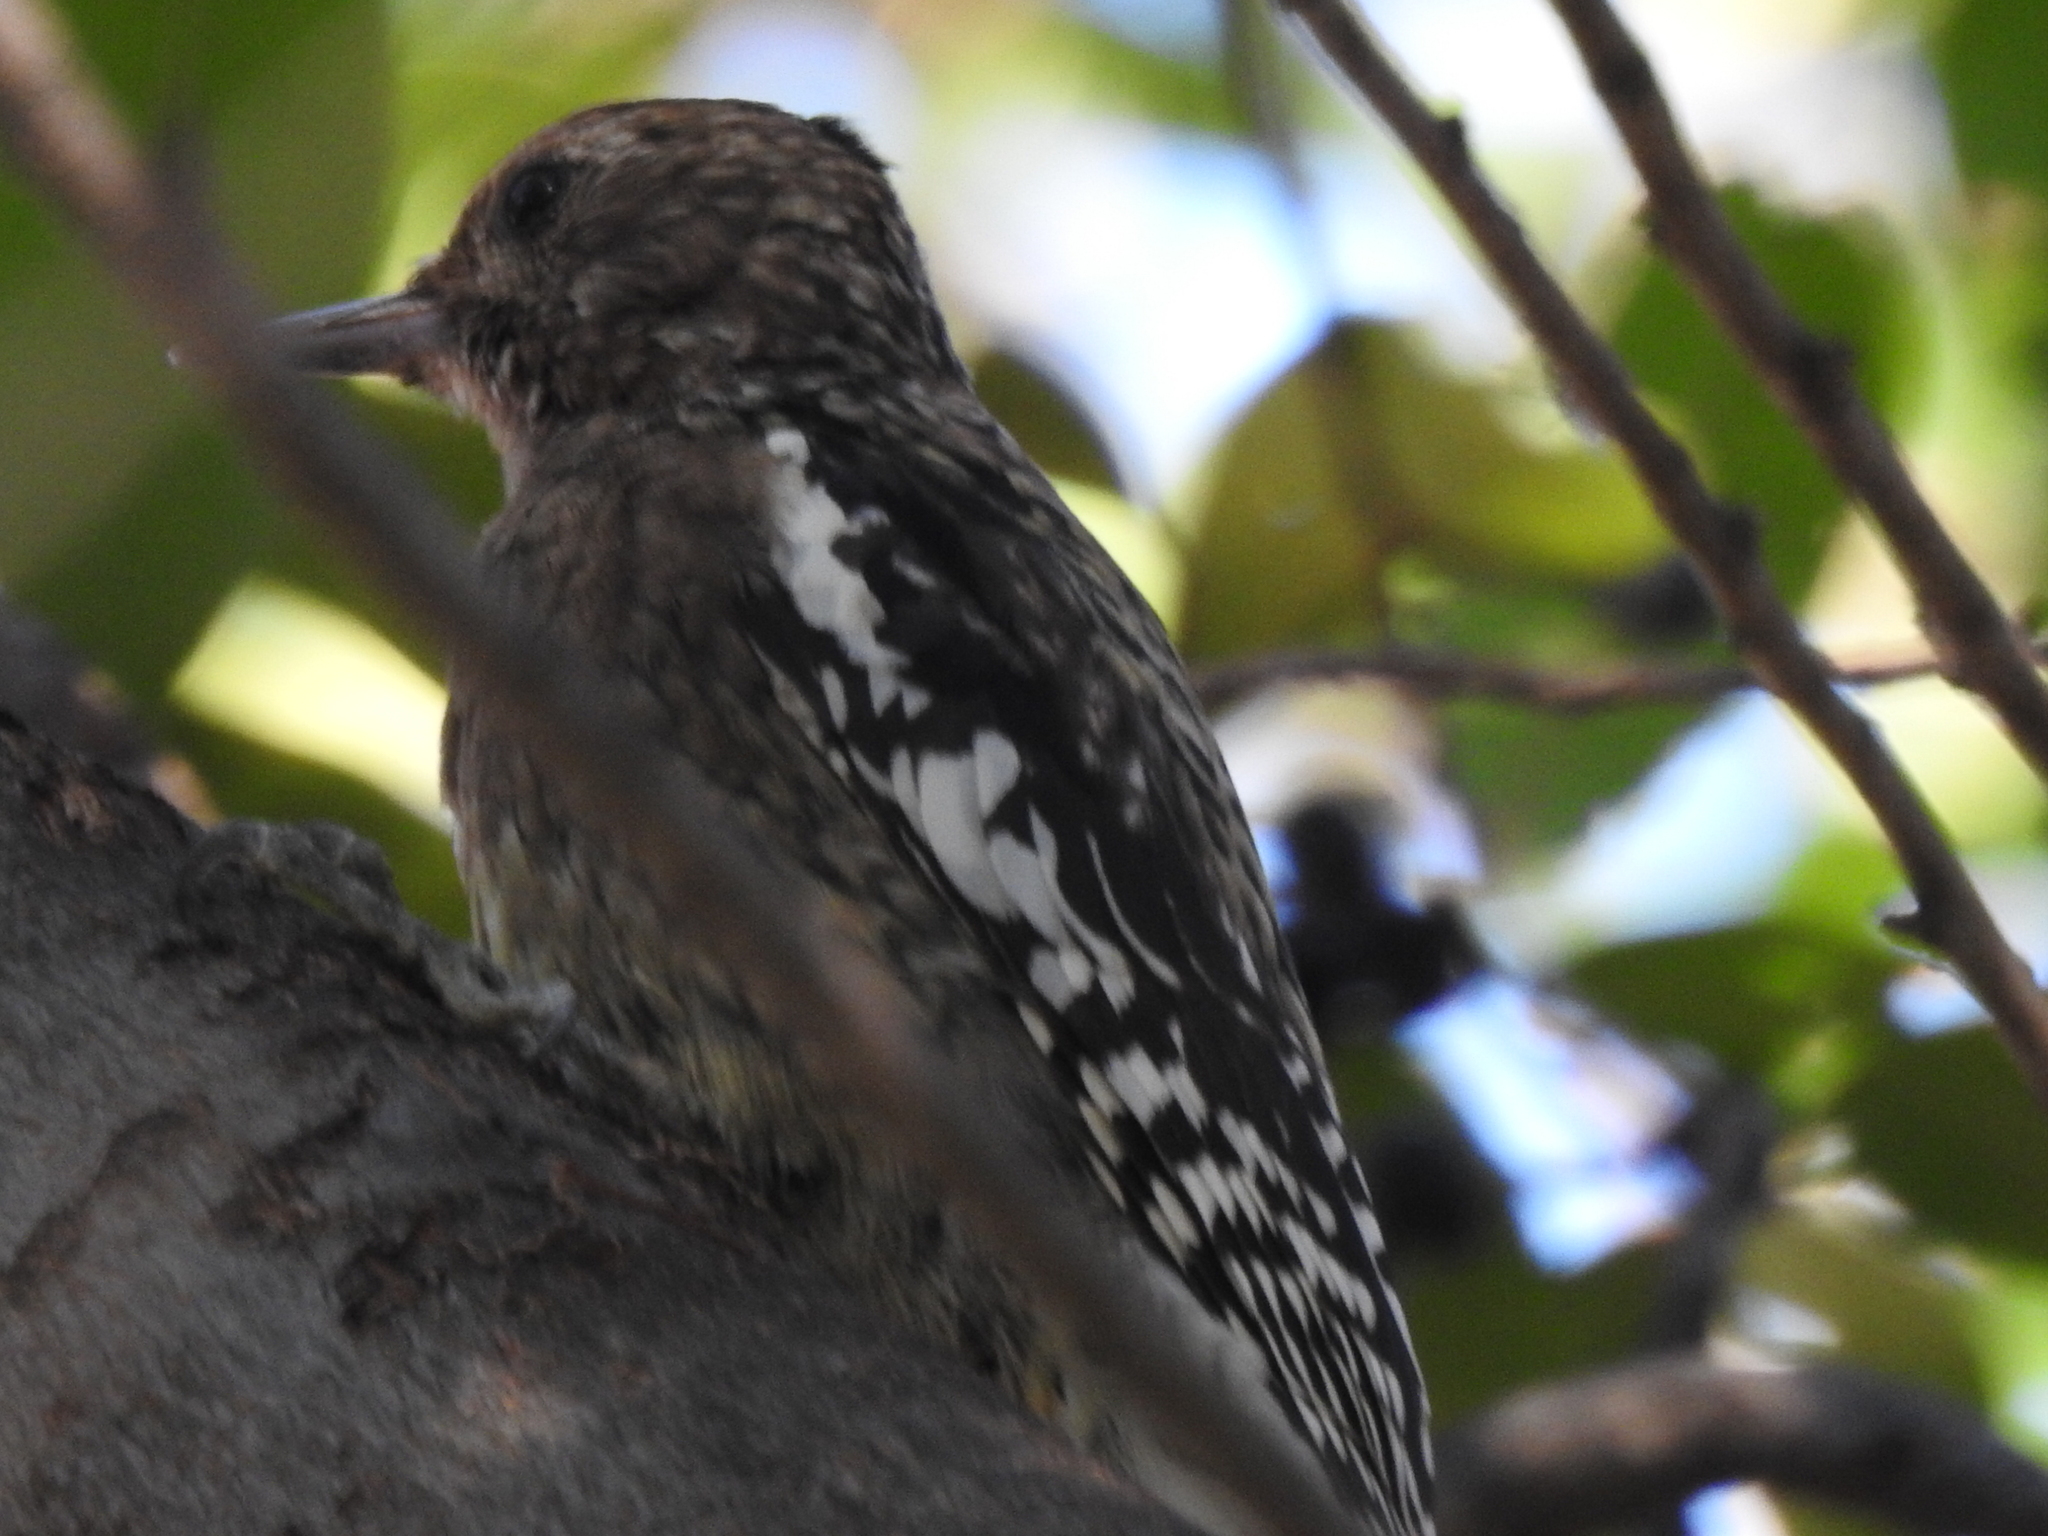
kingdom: Animalia
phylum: Chordata
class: Aves
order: Piciformes
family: Picidae
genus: Sphyrapicus
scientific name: Sphyrapicus varius
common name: Yellow-bellied sapsucker
